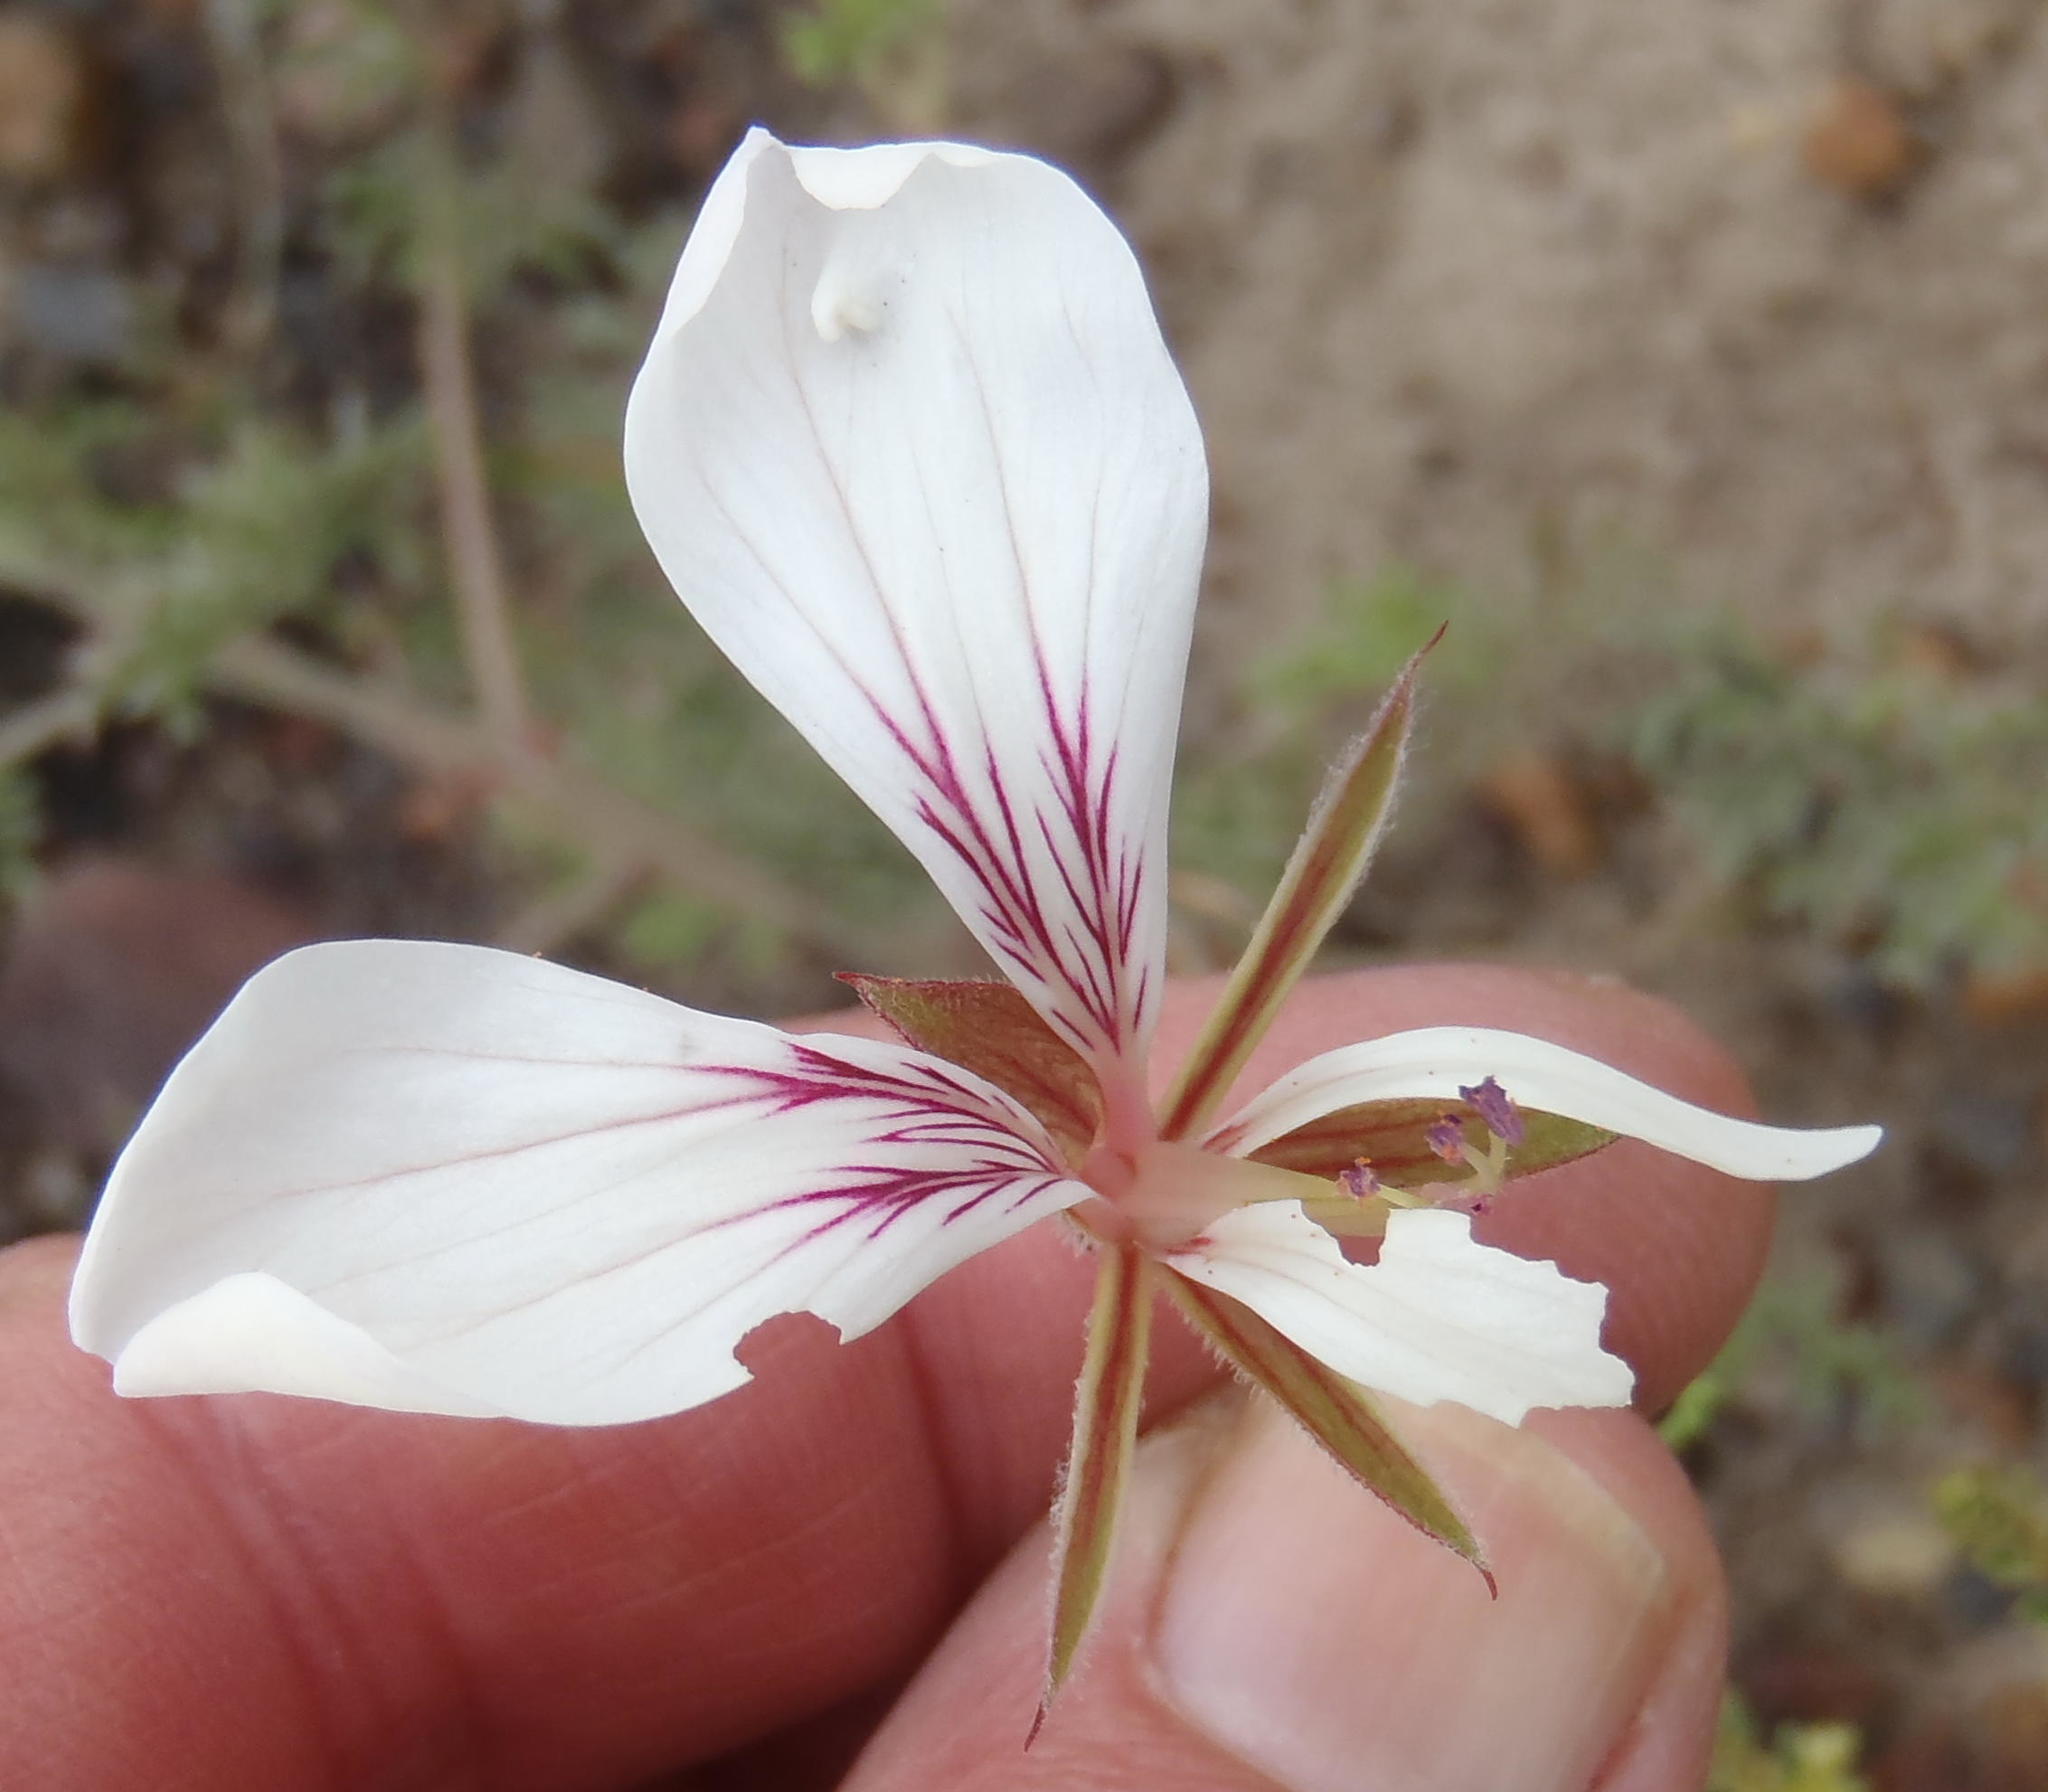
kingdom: Plantae
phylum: Tracheophyta
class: Magnoliopsida
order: Geraniales
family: Geraniaceae
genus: Pelargonium
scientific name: Pelargonium caucalifolium
